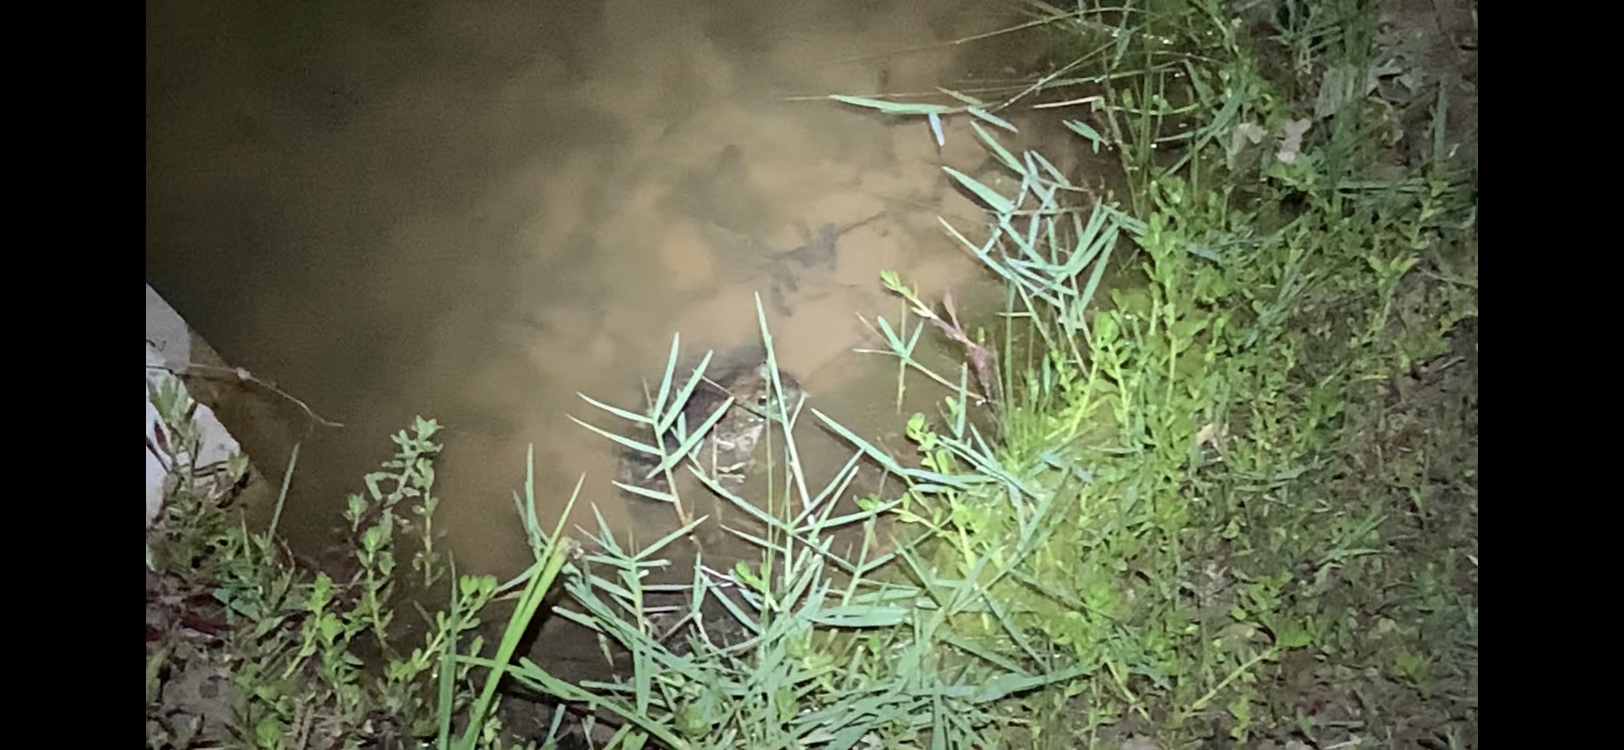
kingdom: Animalia
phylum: Chordata
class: Amphibia
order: Anura
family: Ranidae
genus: Lithobates
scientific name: Lithobates catesbeianus
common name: American bullfrog
